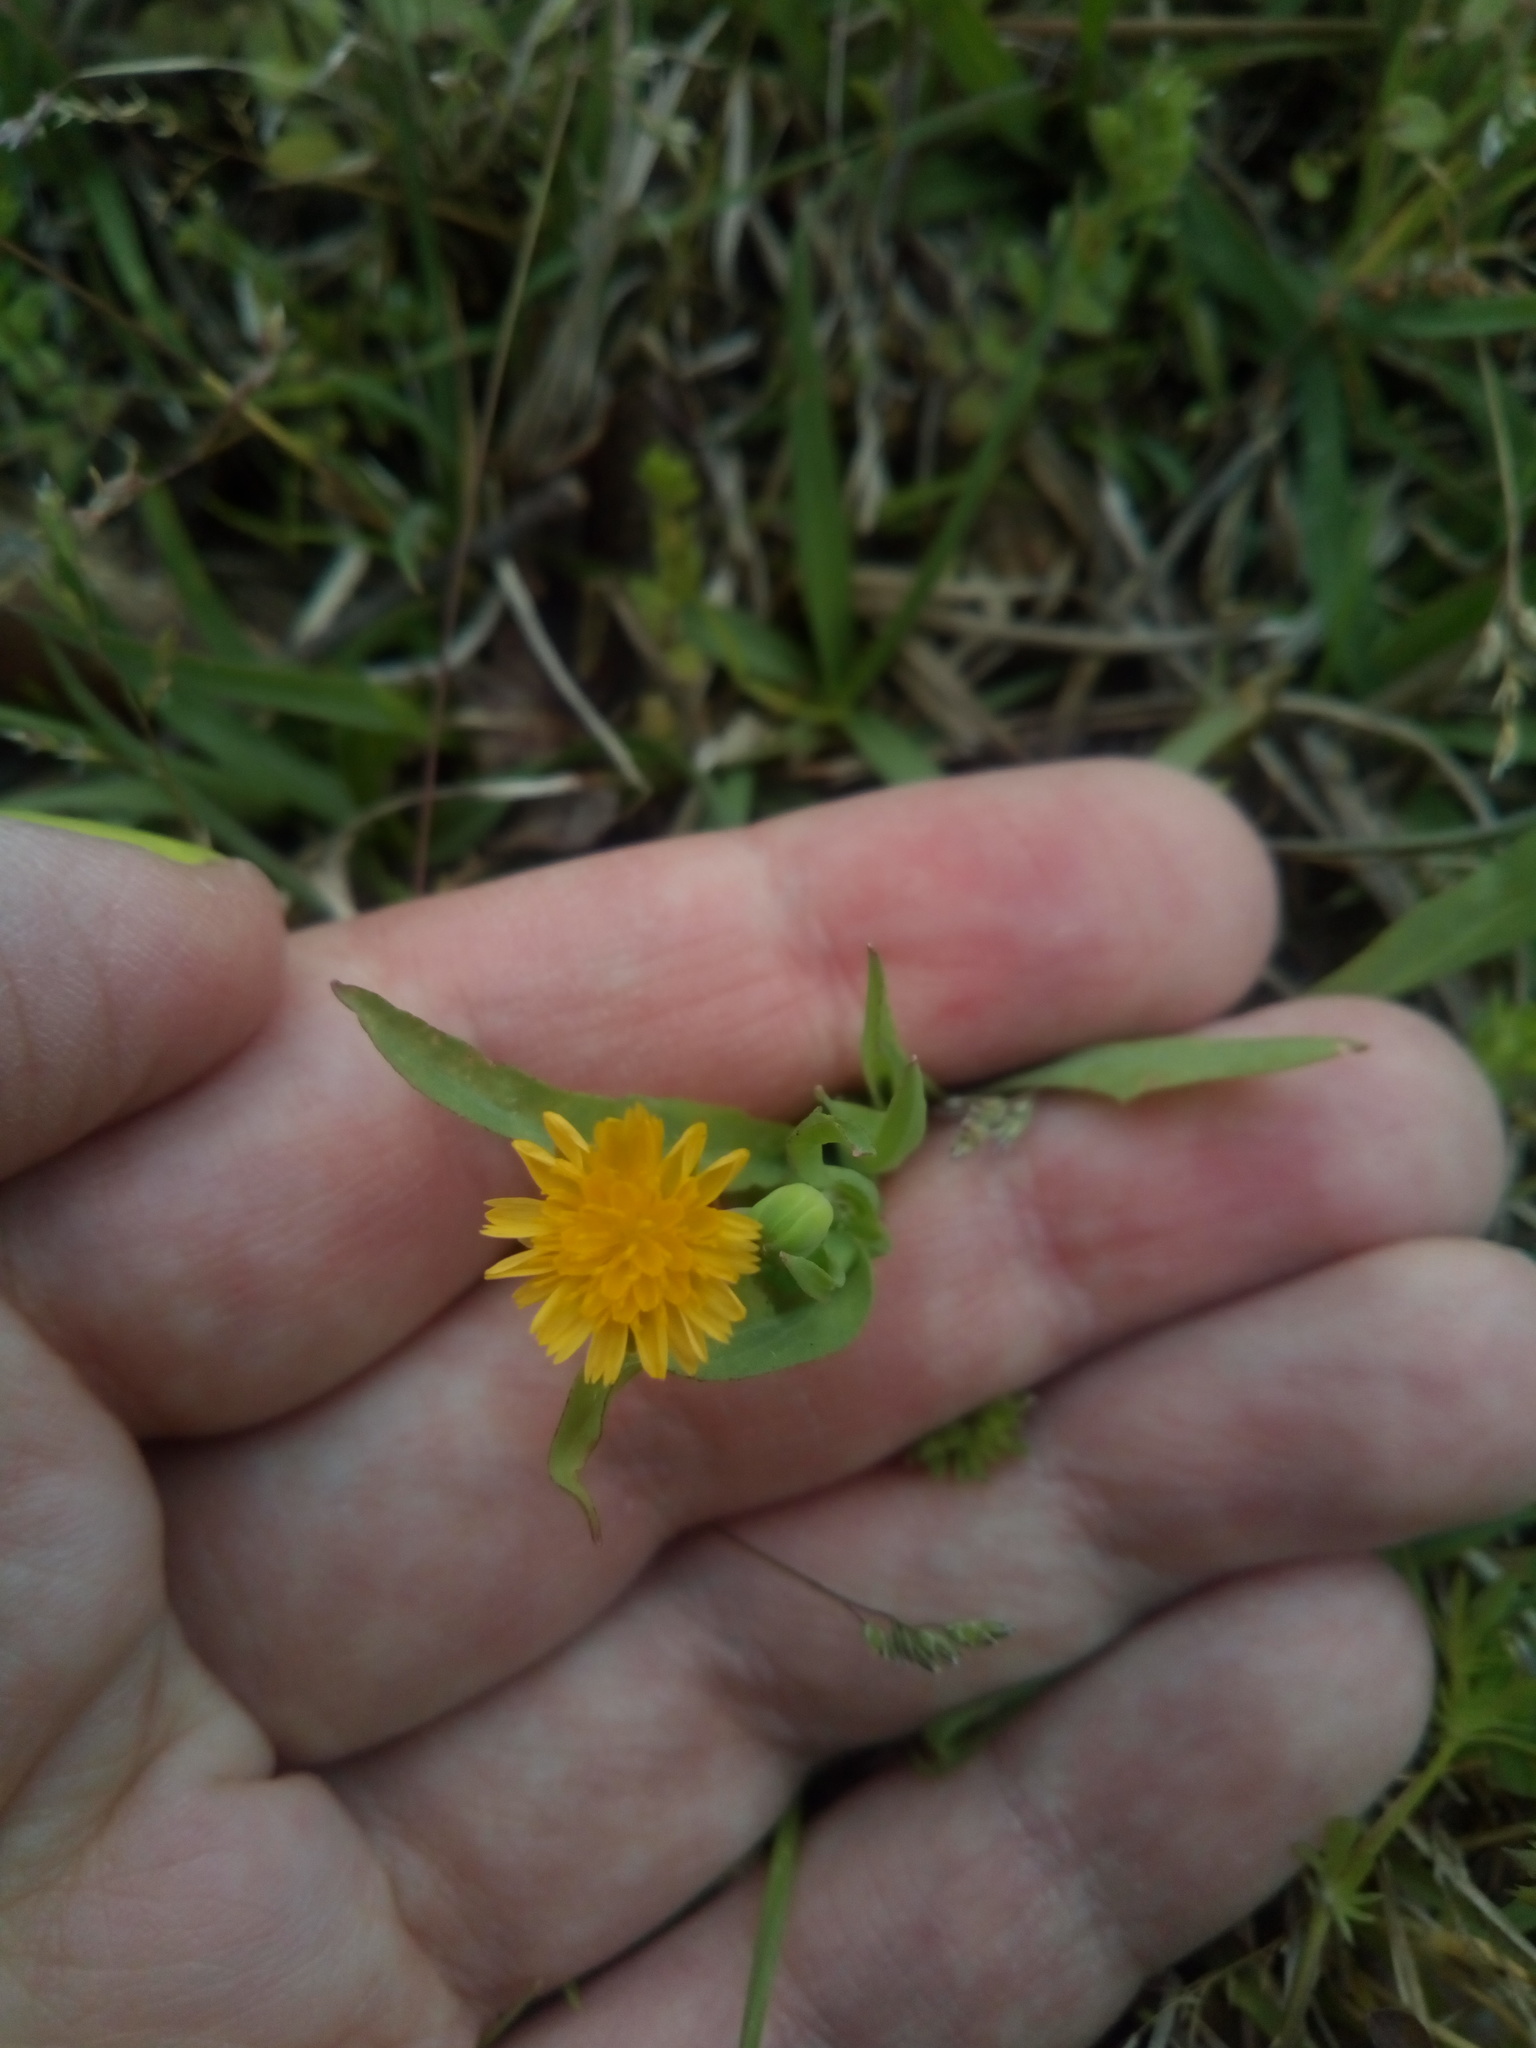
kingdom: Plantae
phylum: Tracheophyta
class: Magnoliopsida
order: Asterales
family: Asteraceae
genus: Krigia
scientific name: Krigia cespitosa
